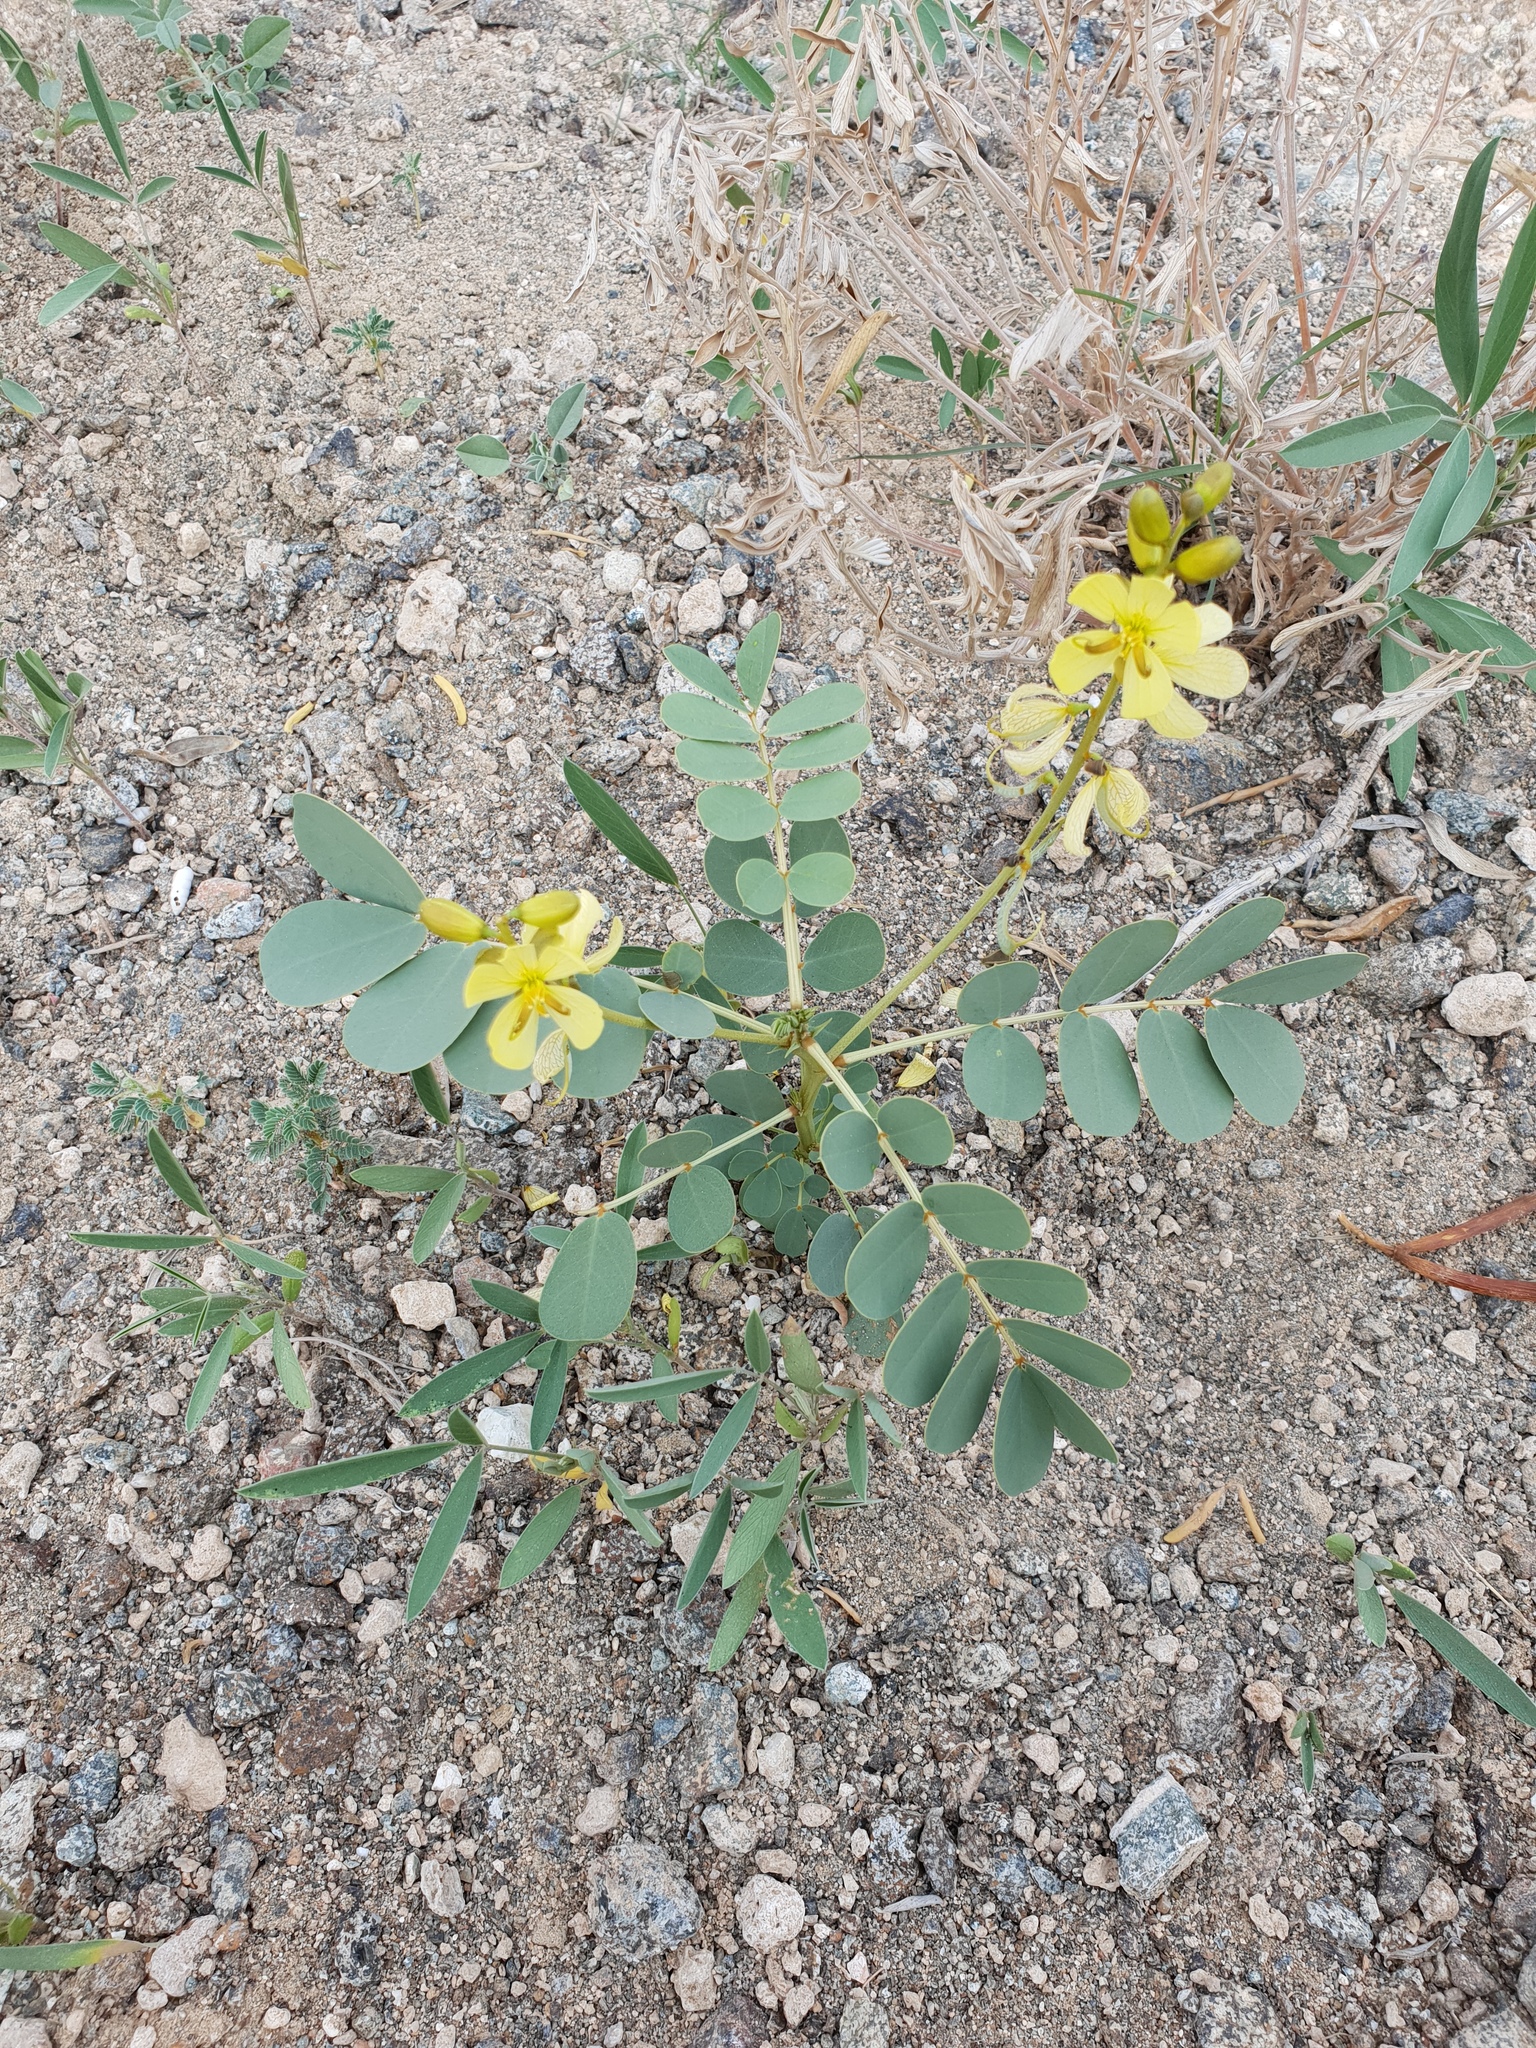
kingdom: Plantae
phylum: Tracheophyta
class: Magnoliopsida
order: Fabales
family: Fabaceae
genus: Senna
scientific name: Senna italica
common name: Port royal senna
